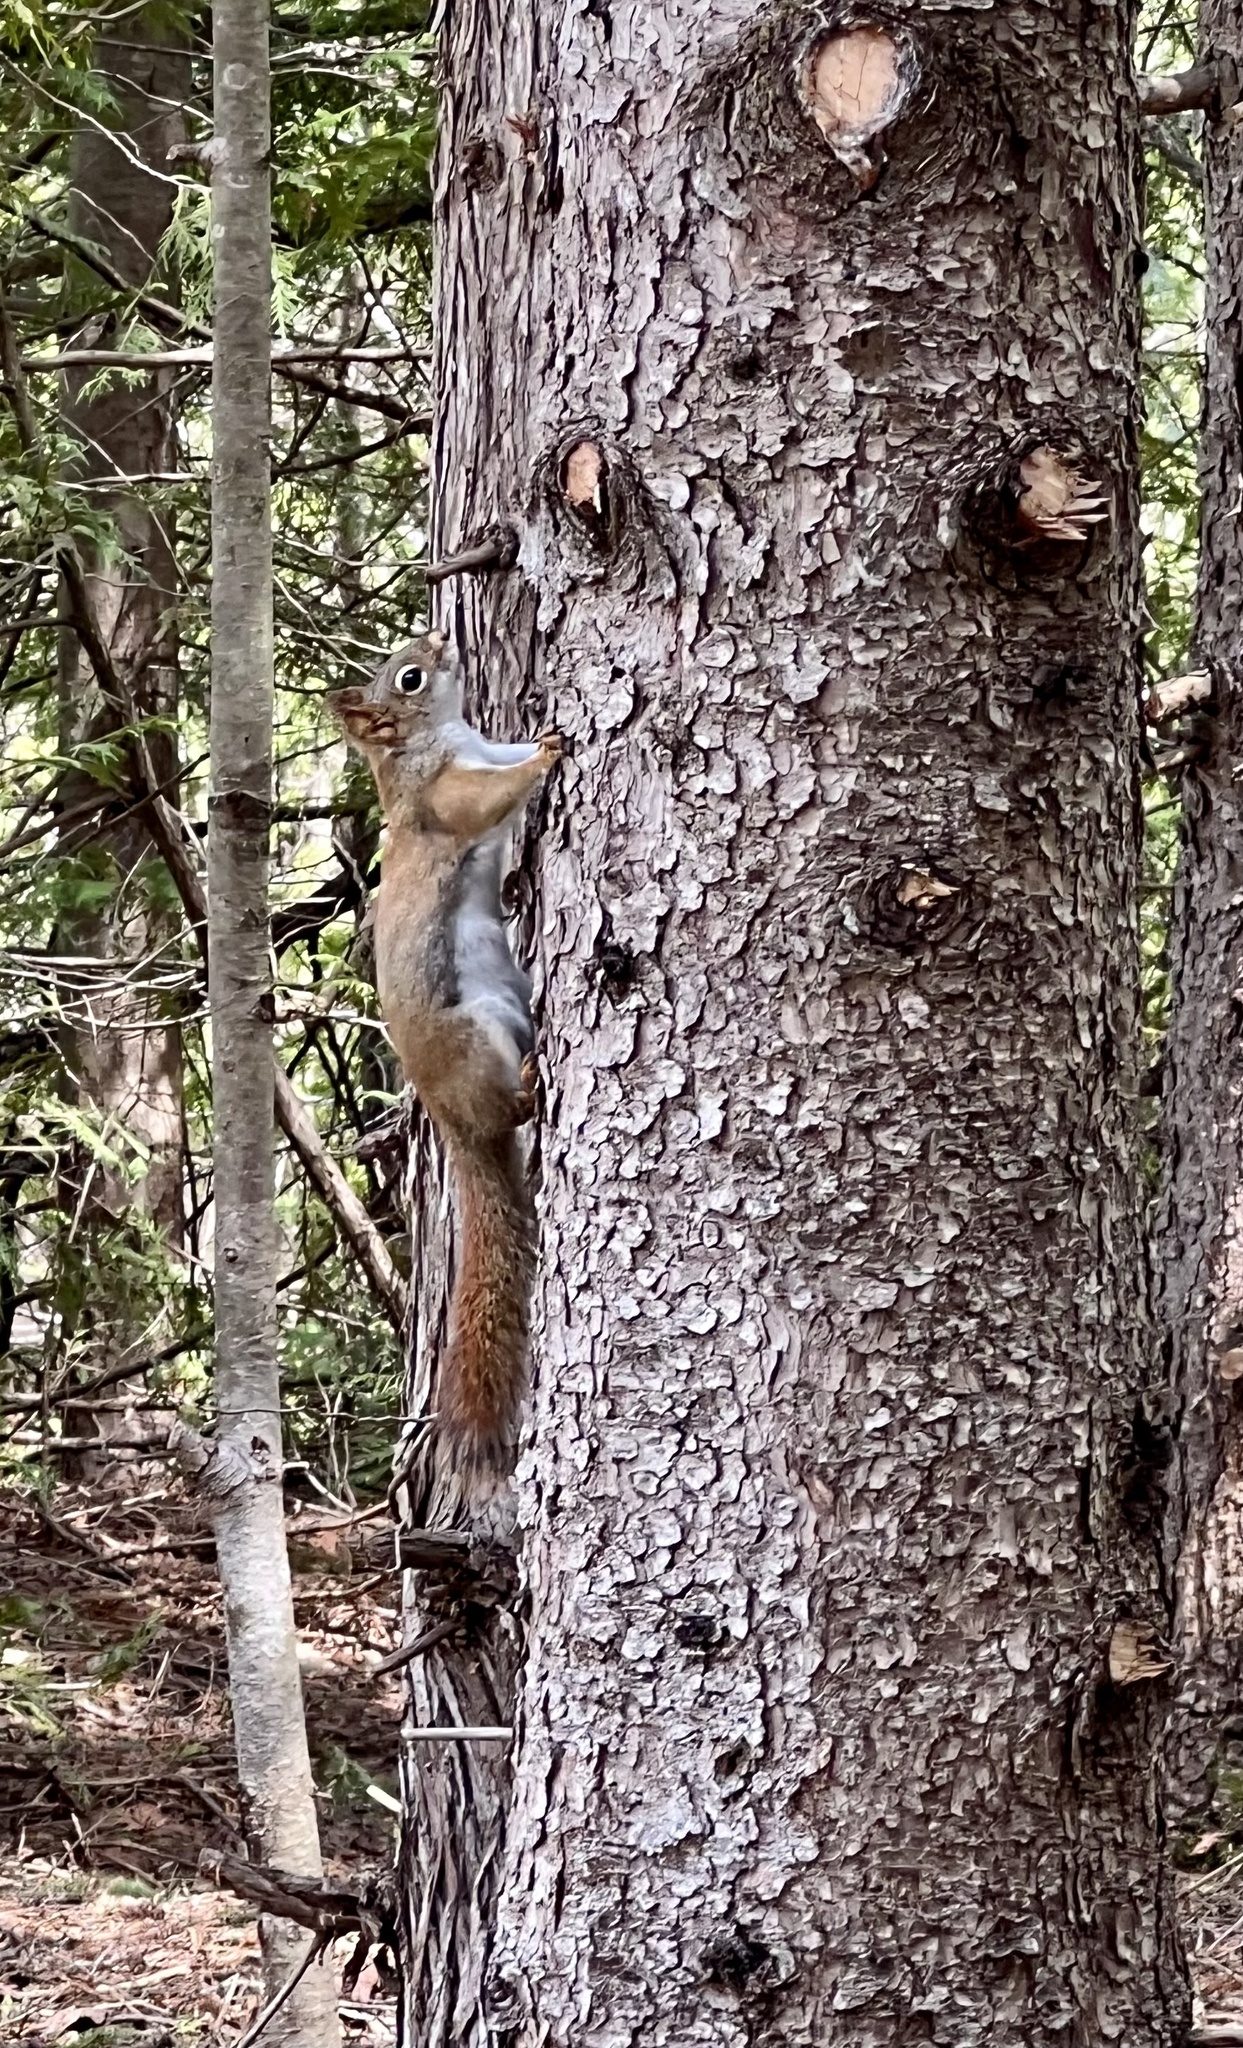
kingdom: Animalia
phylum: Chordata
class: Mammalia
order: Rodentia
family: Sciuridae
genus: Tamiasciurus
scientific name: Tamiasciurus hudsonicus
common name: Red squirrel
